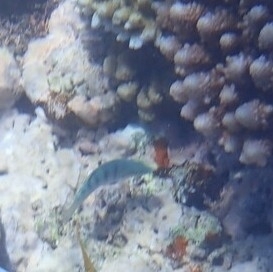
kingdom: Animalia
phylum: Chordata
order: Perciformes
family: Labridae
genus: Thalassoma
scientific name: Thalassoma hardwicke
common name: Sixbar wrasse
